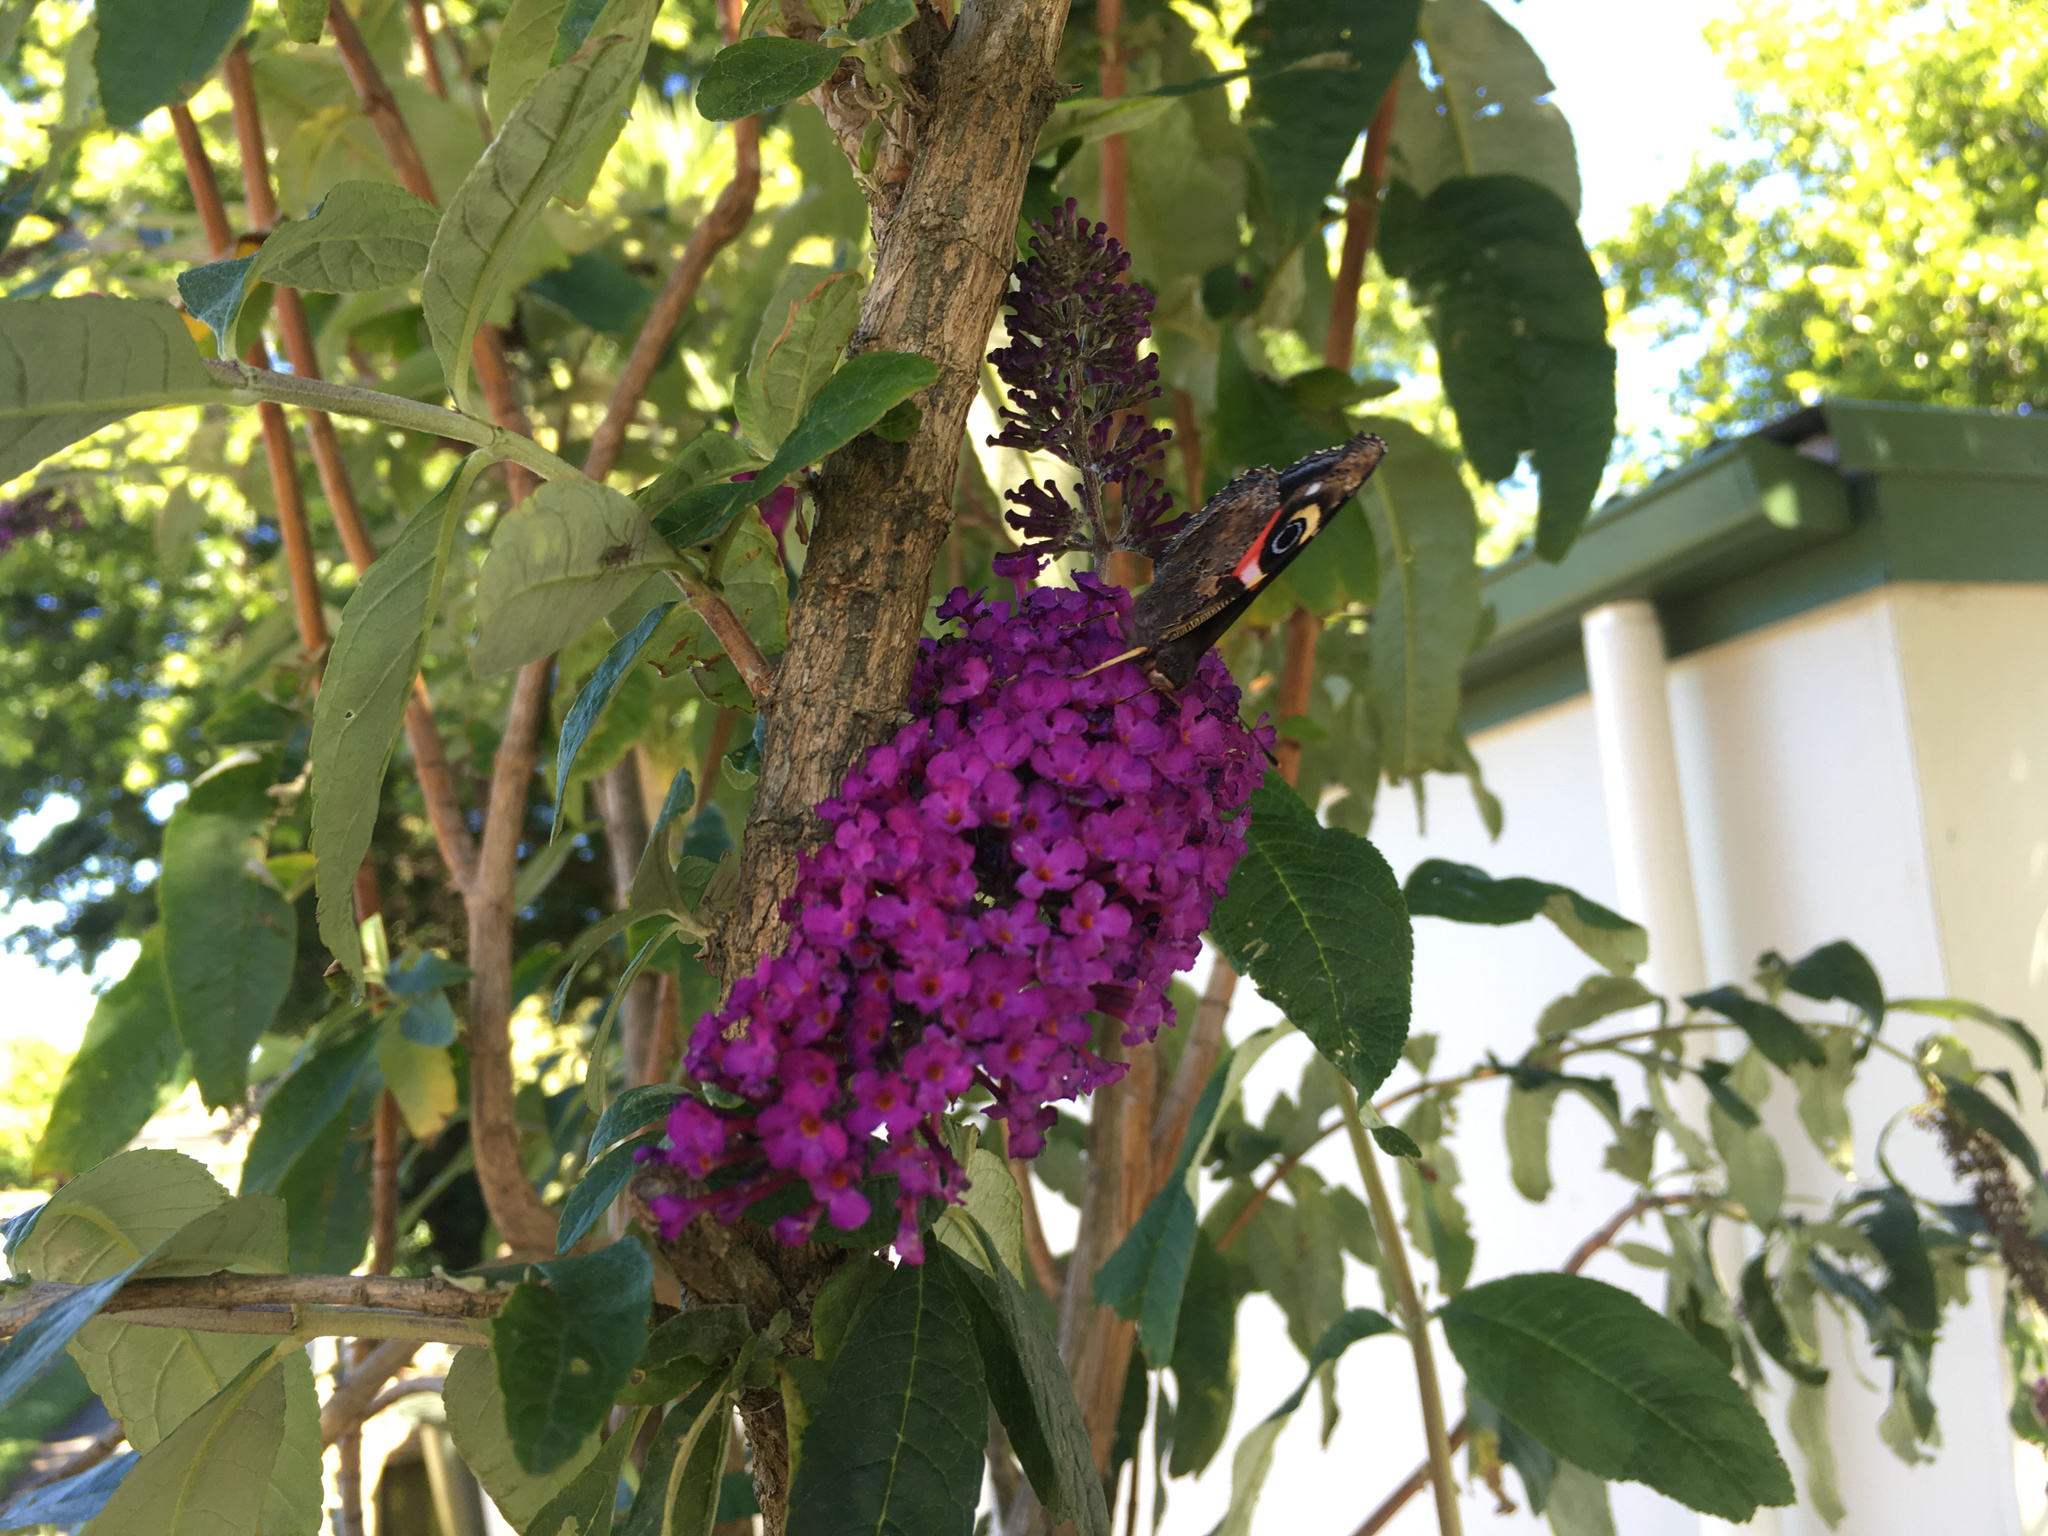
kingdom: Animalia
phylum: Arthropoda
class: Insecta
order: Lepidoptera
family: Nymphalidae
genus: Vanessa
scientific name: Vanessa gonerilla
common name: New zealand red admiral
